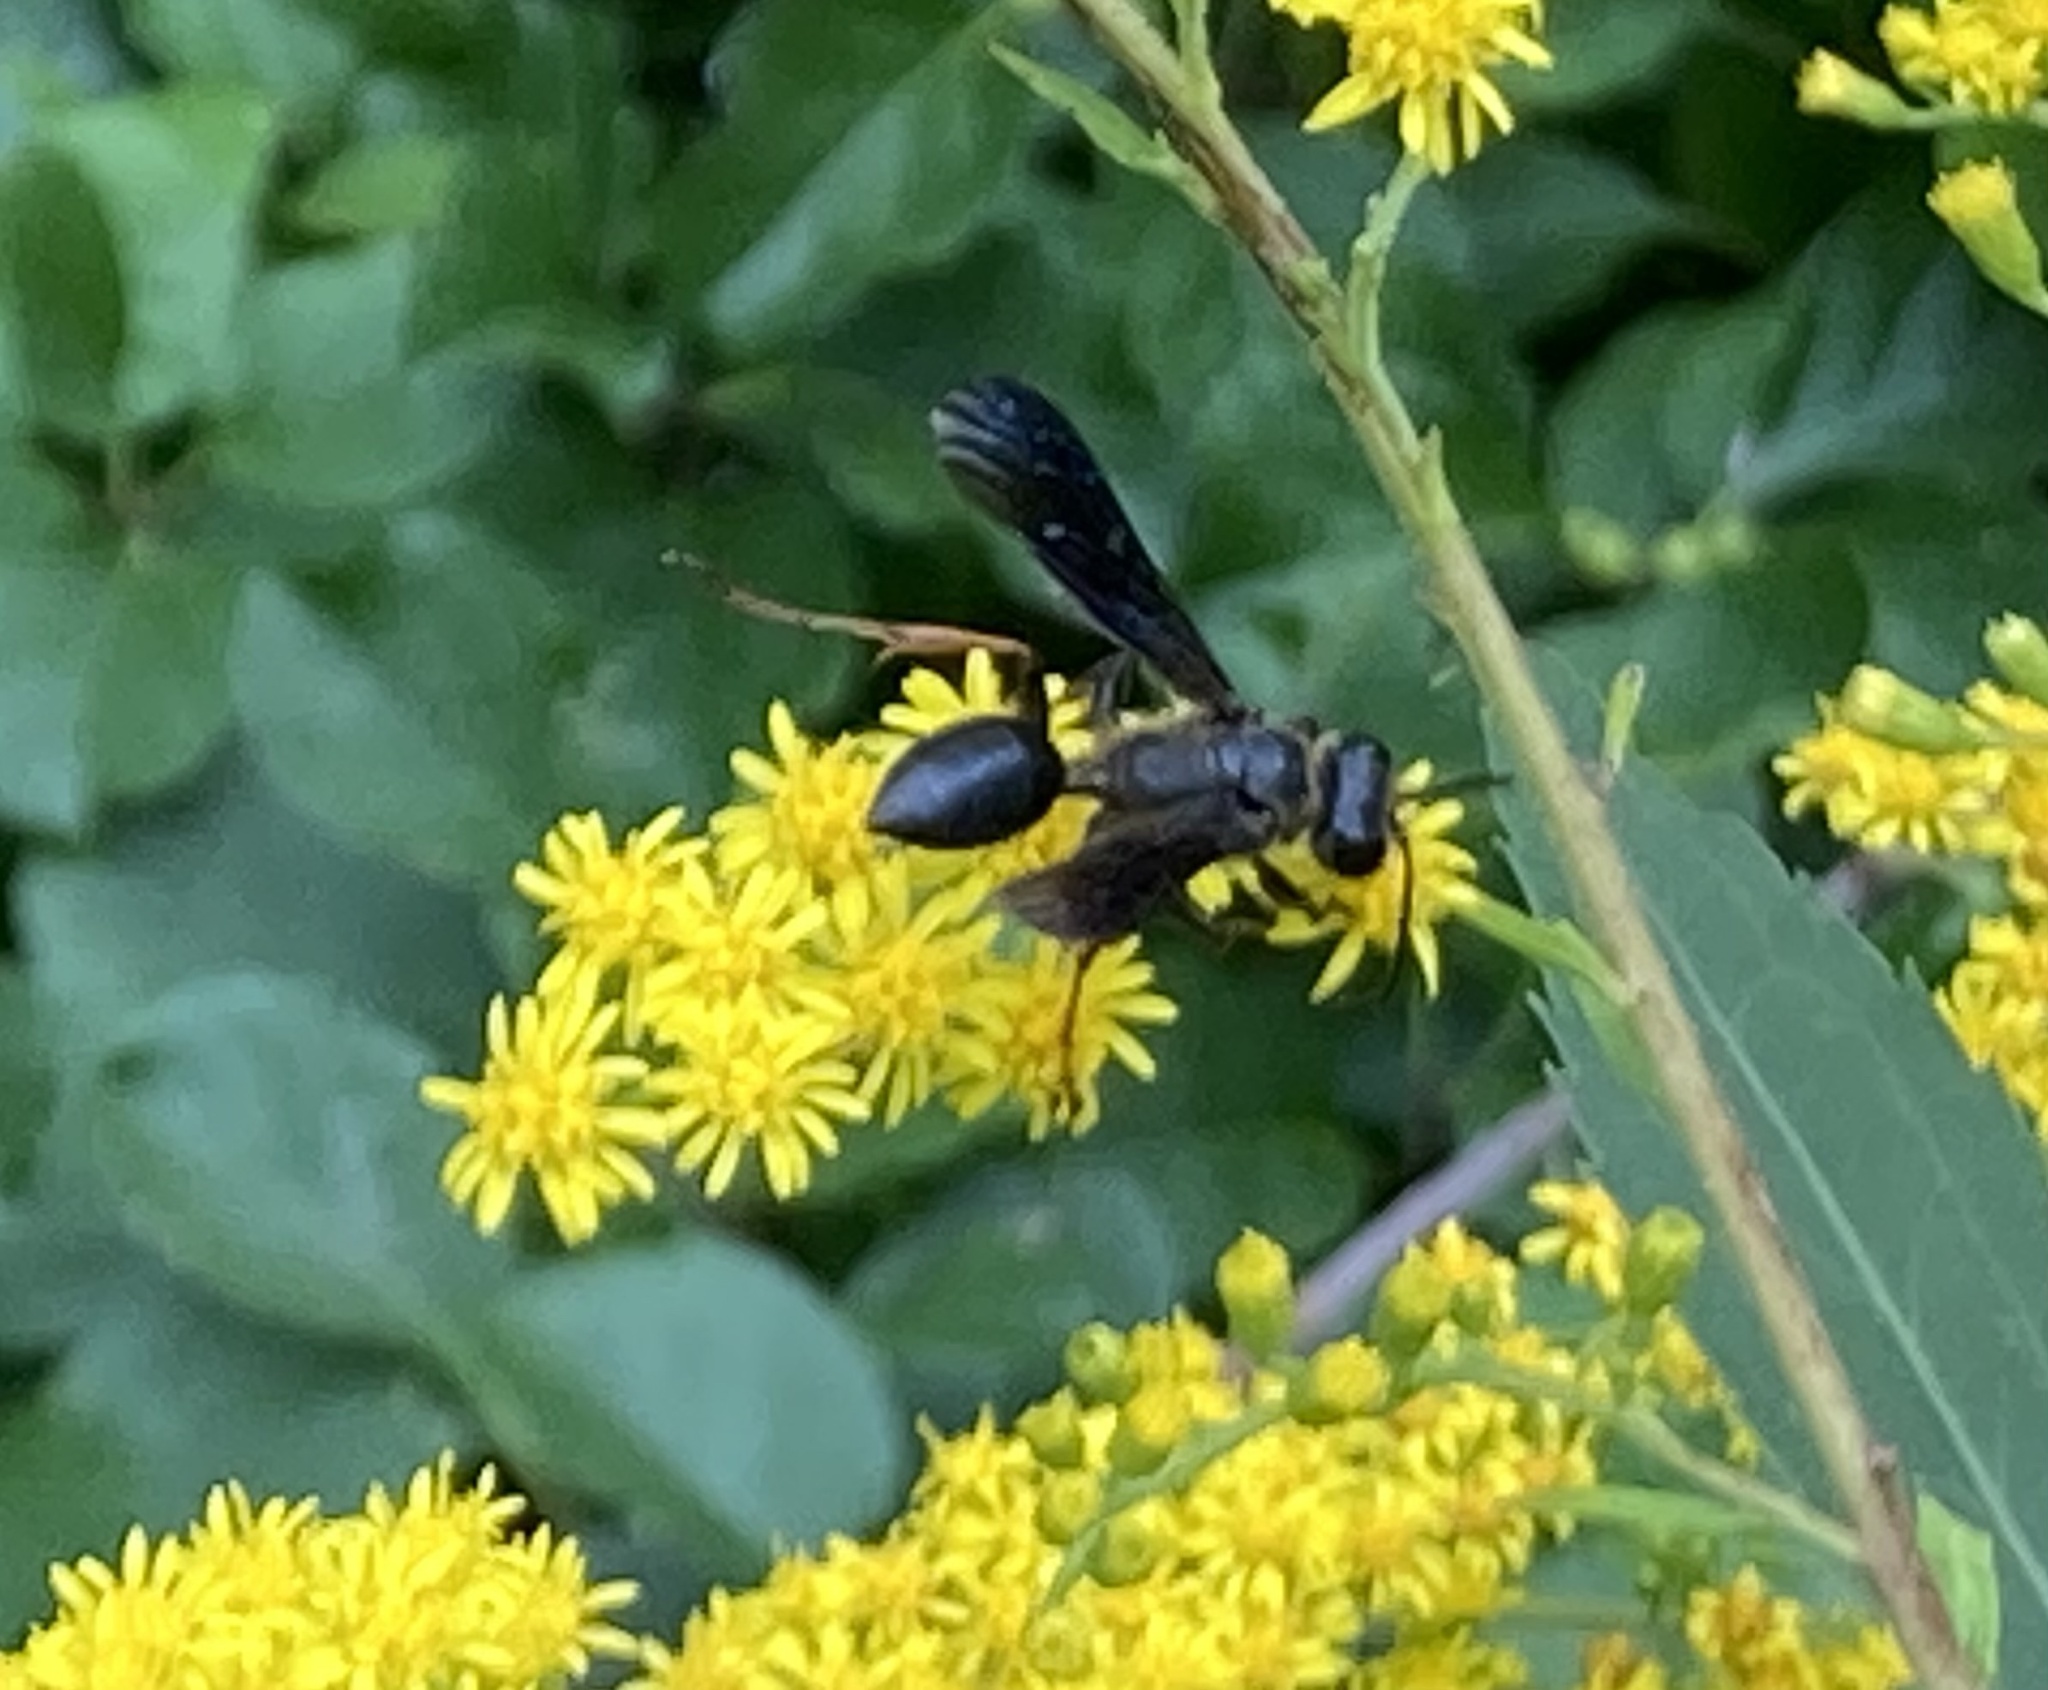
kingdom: Animalia
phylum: Arthropoda
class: Insecta
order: Hymenoptera
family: Sphecidae
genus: Isodontia
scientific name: Isodontia auripes
